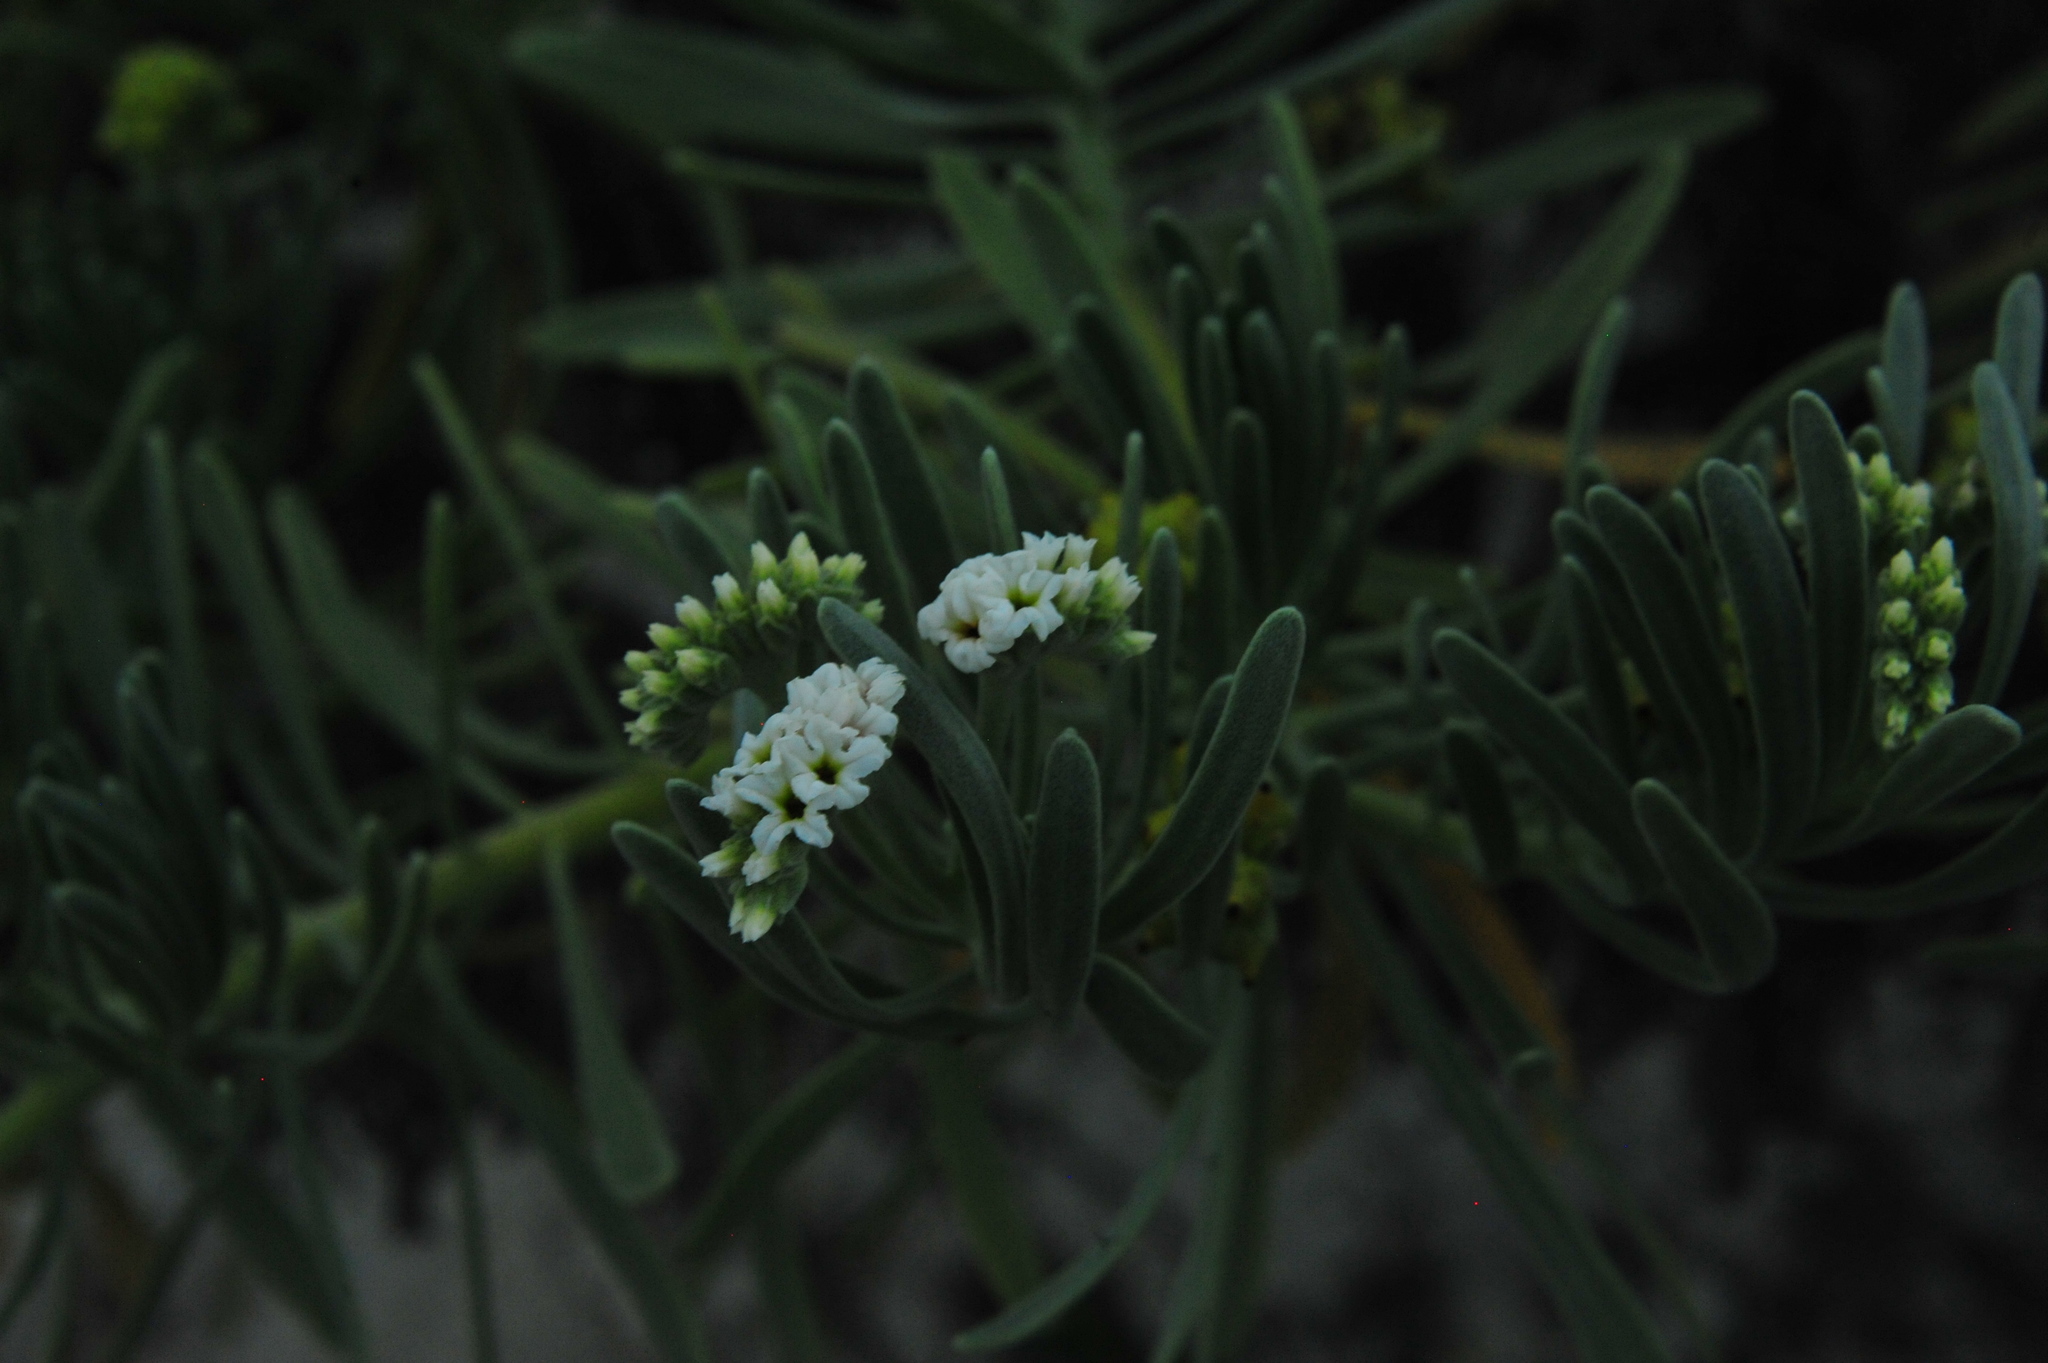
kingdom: Plantae
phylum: Tracheophyta
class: Magnoliopsida
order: Boraginales
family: Heliotropiaceae
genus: Tournefortia
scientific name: Tournefortia gnaphalodes
